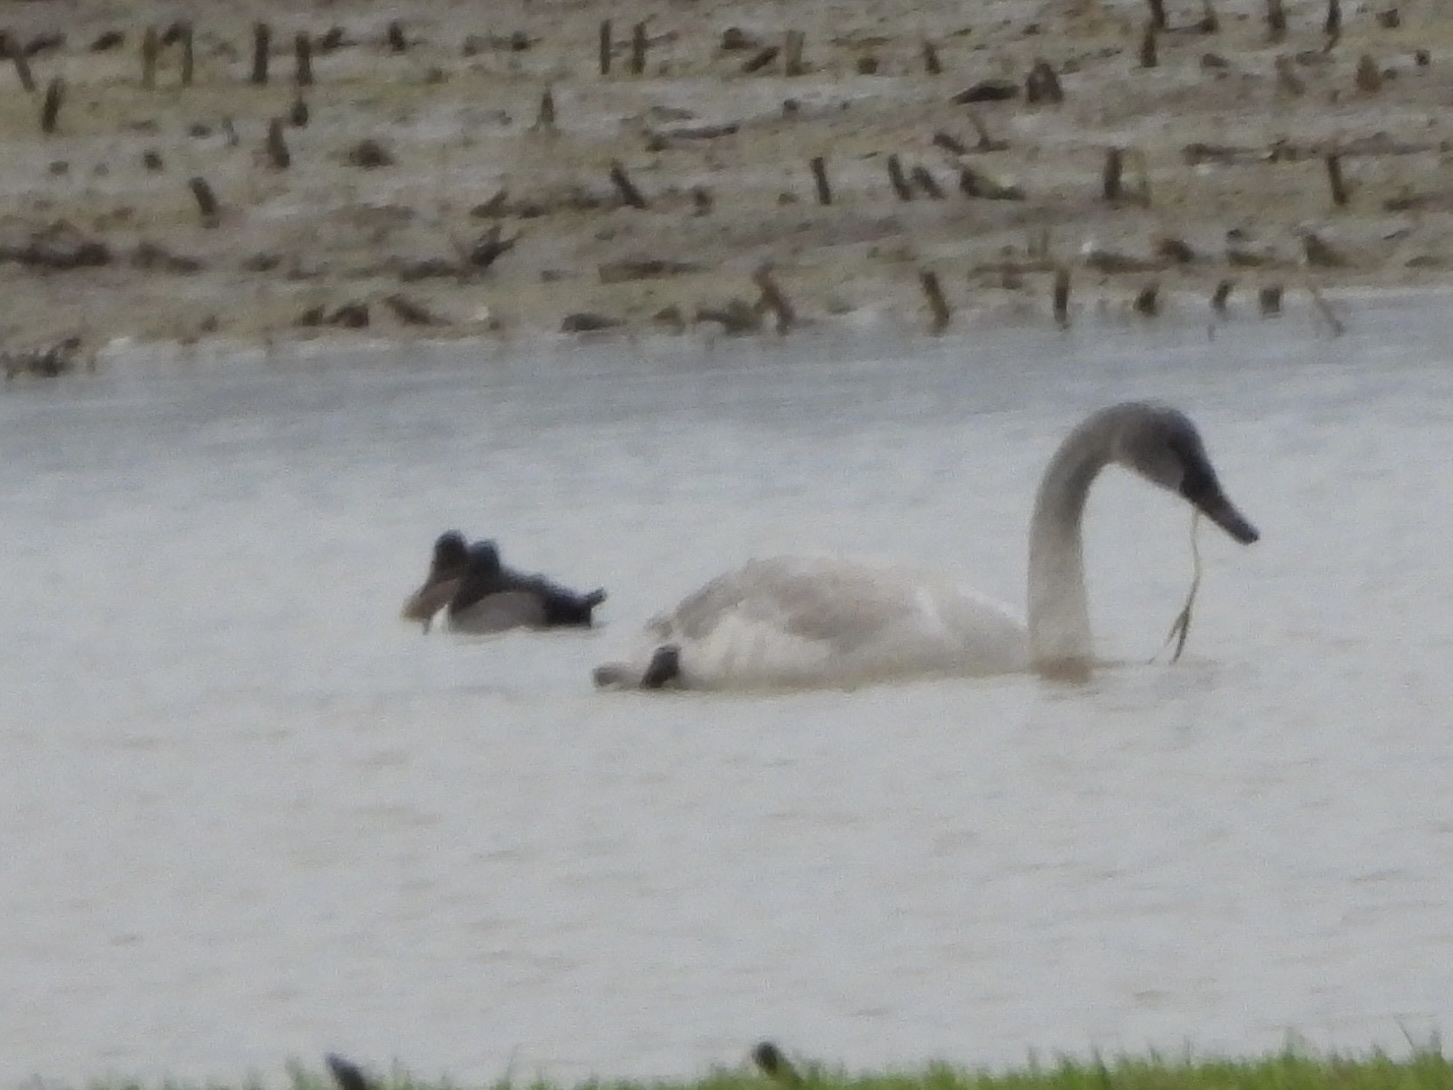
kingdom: Animalia
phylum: Chordata
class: Aves
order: Anseriformes
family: Anatidae
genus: Cygnus
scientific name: Cygnus buccinator
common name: Trumpeter swan
